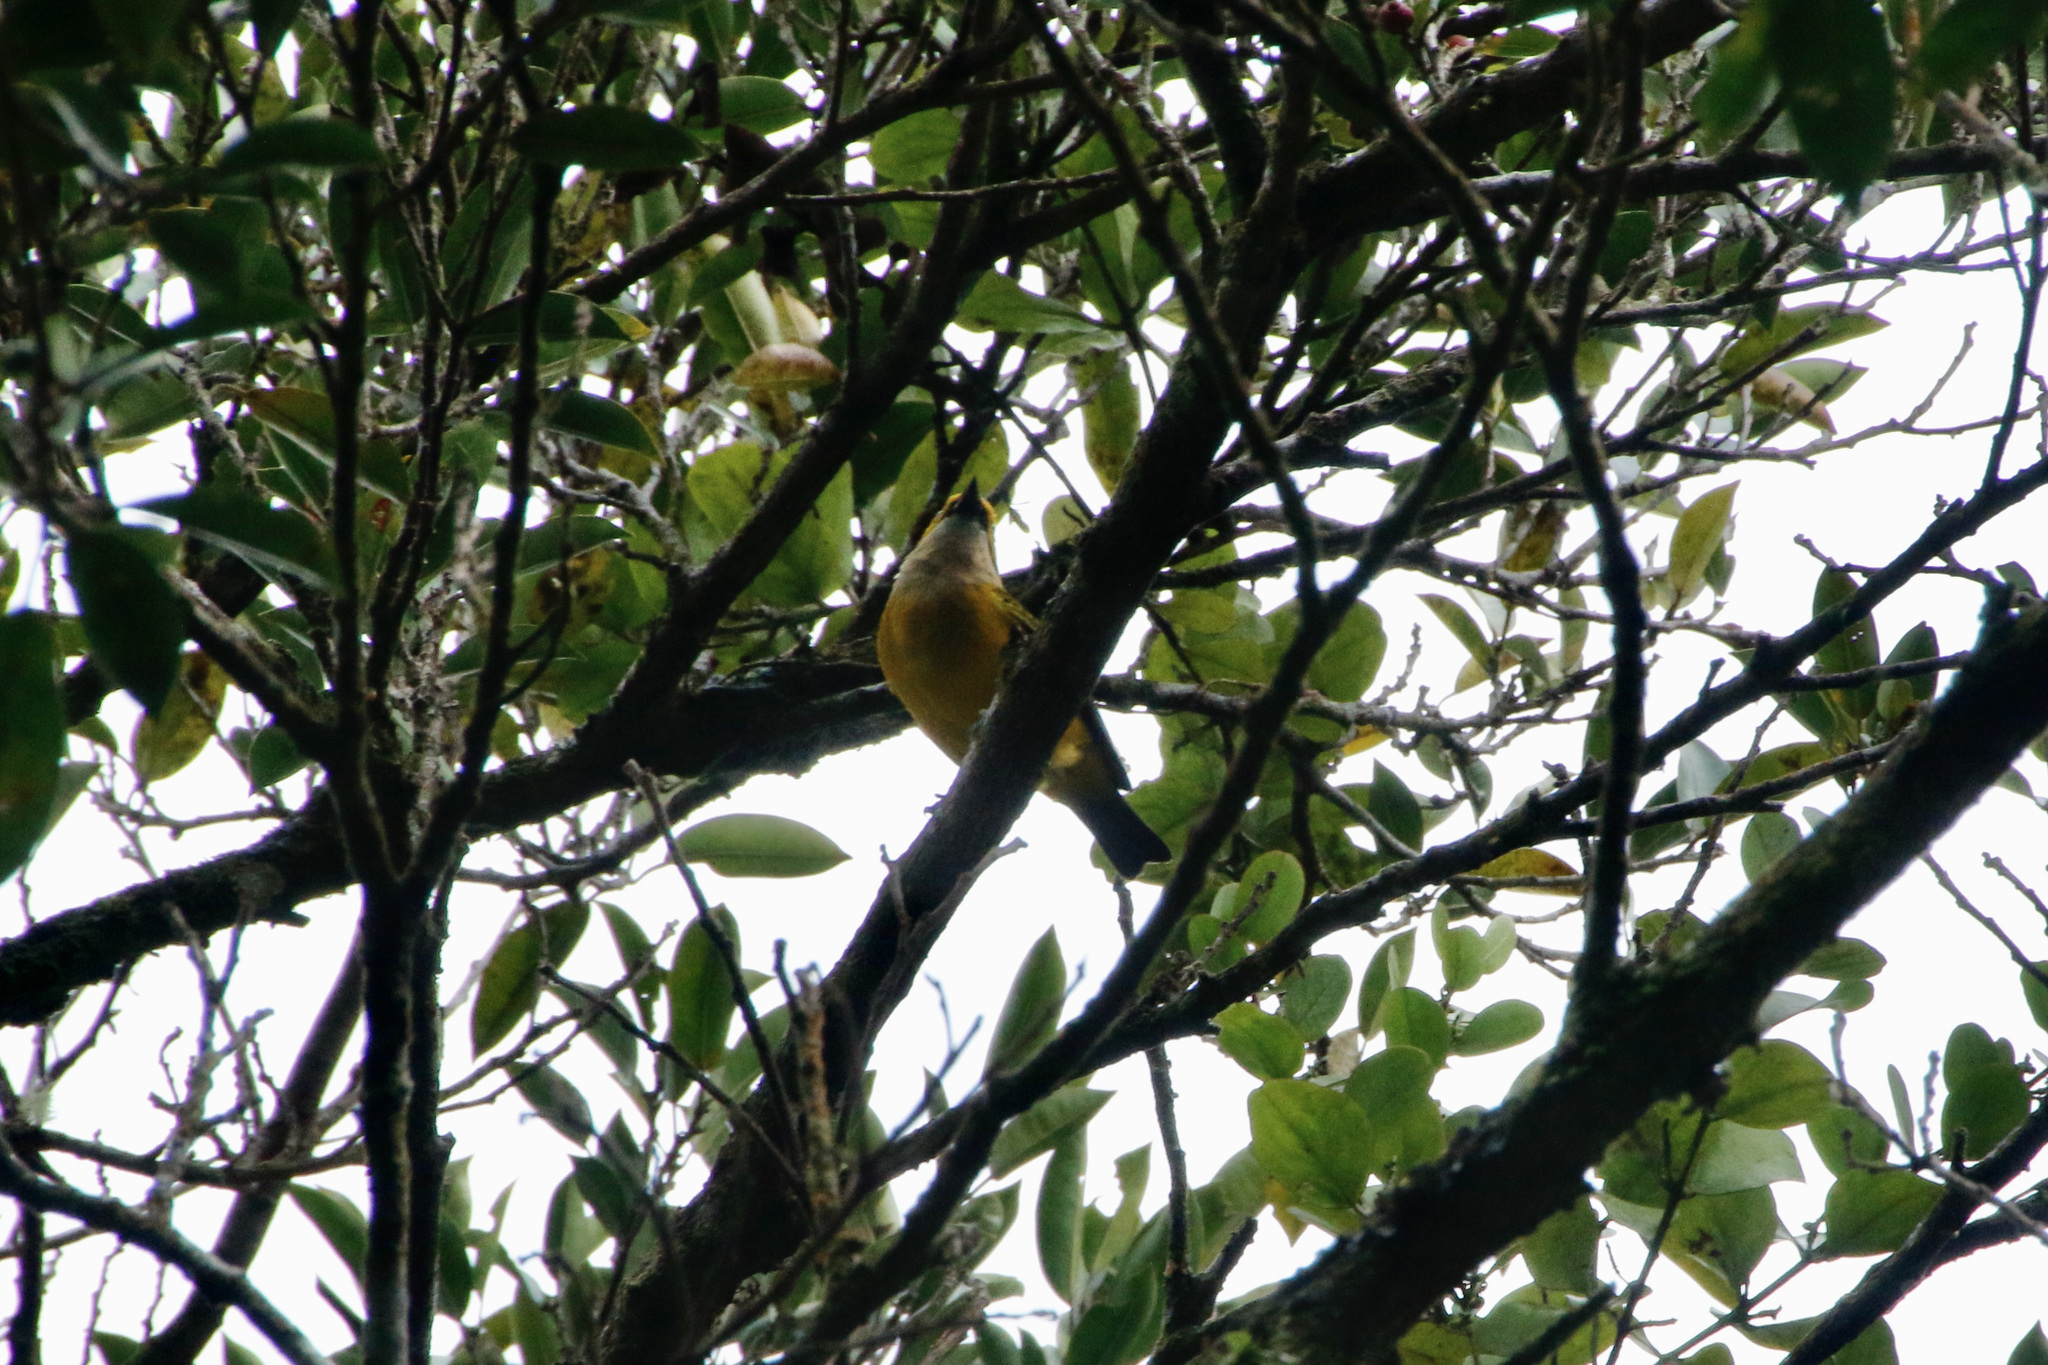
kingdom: Animalia
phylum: Chordata
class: Aves
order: Passeriformes
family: Thraupidae
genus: Tangara
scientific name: Tangara icterocephala
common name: Silver-throated tanager
